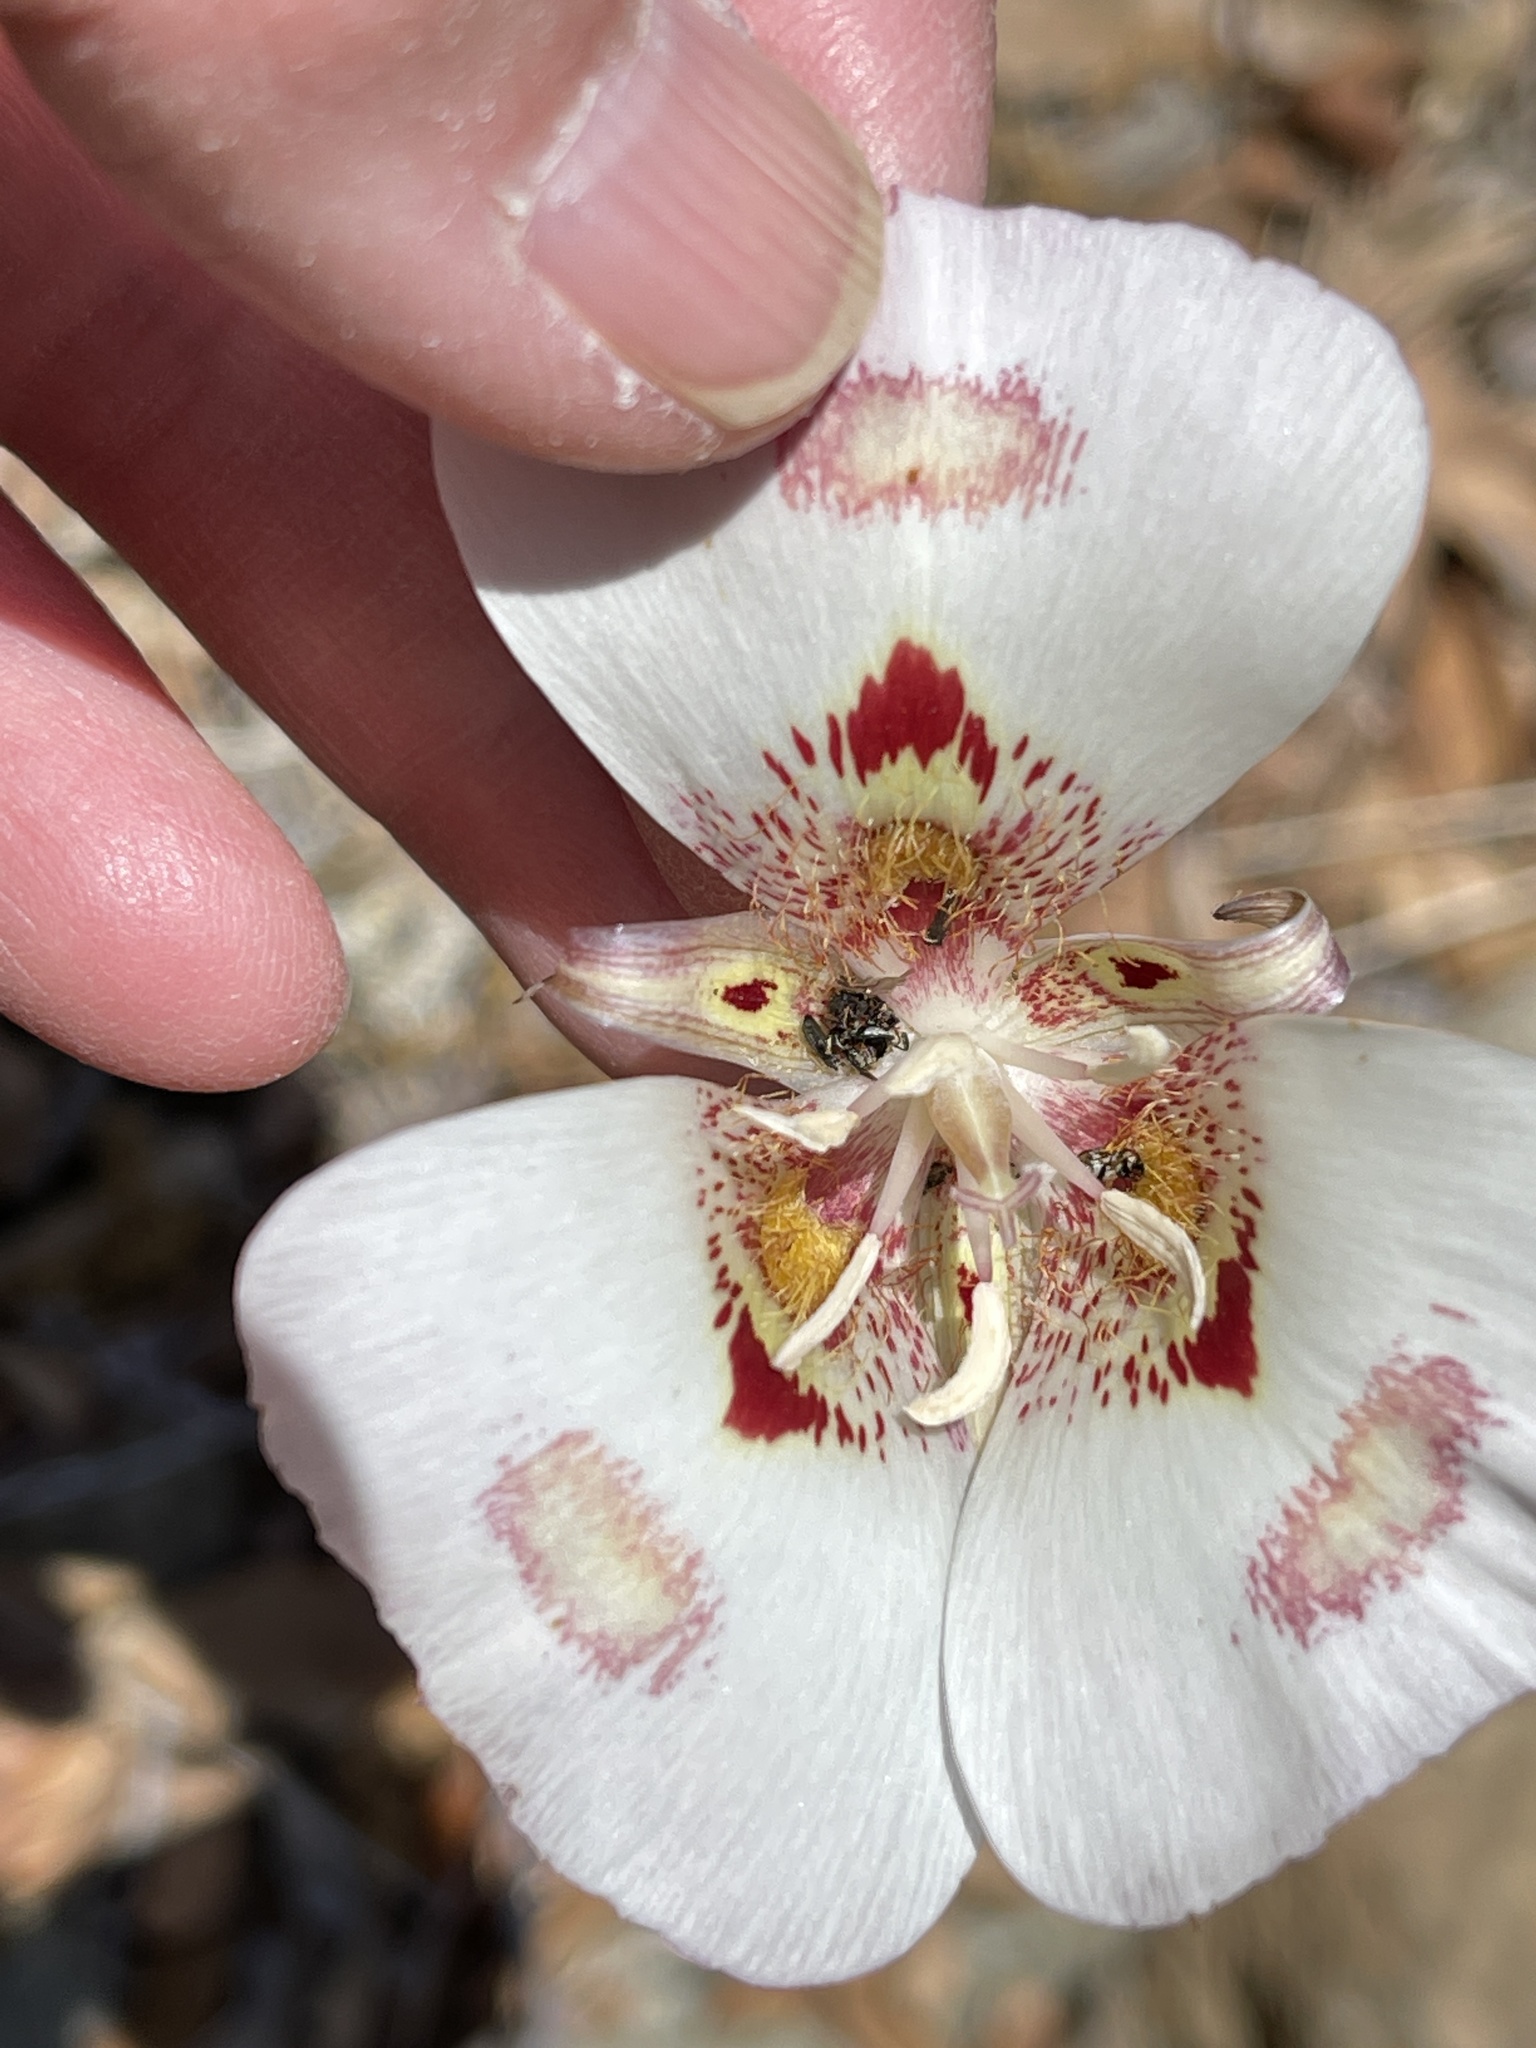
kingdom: Plantae
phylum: Tracheophyta
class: Liliopsida
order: Liliales
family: Liliaceae
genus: Calochortus
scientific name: Calochortus venustus
